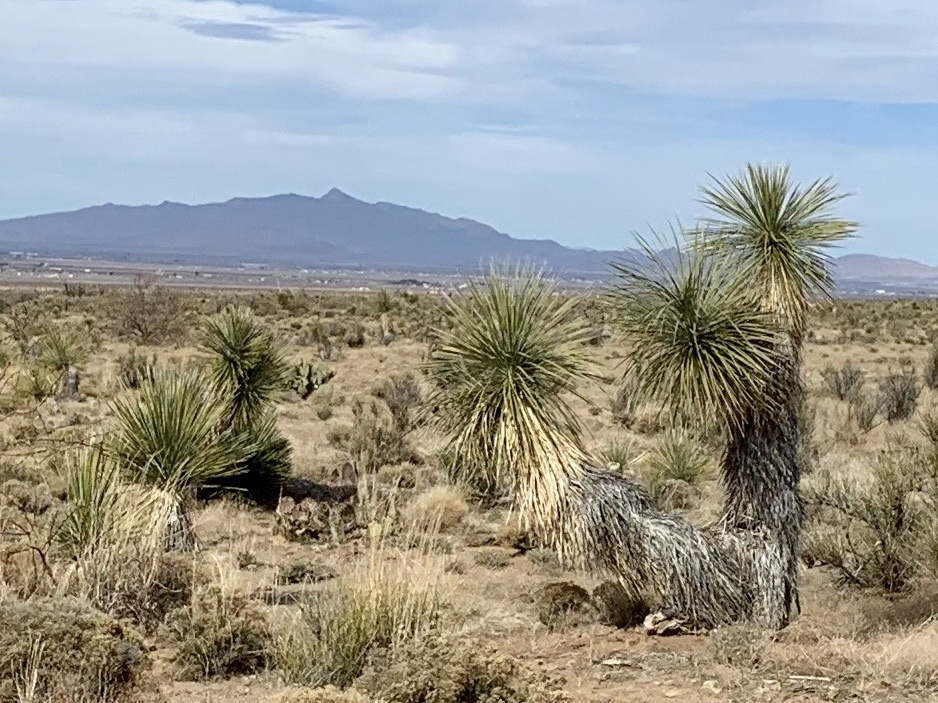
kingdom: Plantae
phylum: Tracheophyta
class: Liliopsida
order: Asparagales
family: Asparagaceae
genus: Yucca
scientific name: Yucca elata
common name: Palmella
